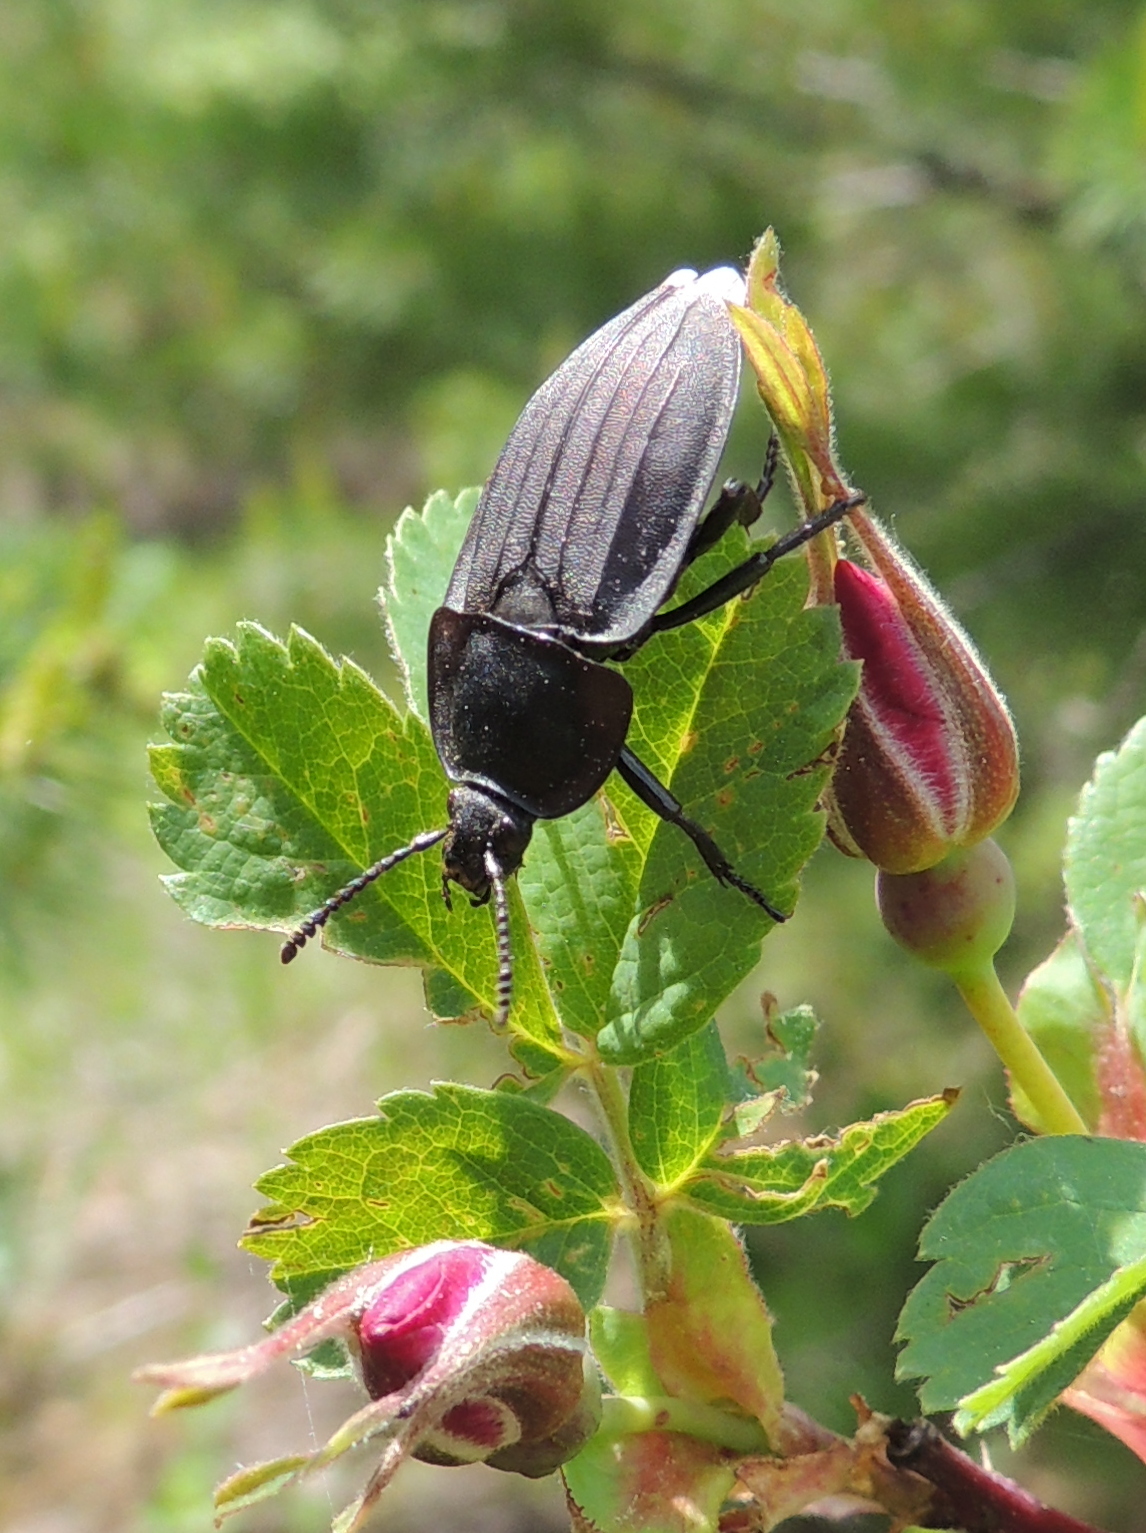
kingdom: Animalia
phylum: Arthropoda
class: Insecta
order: Coleoptera
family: Staphylinidae
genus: Silpha
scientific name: Silpha carinata
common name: Silphid beetle
